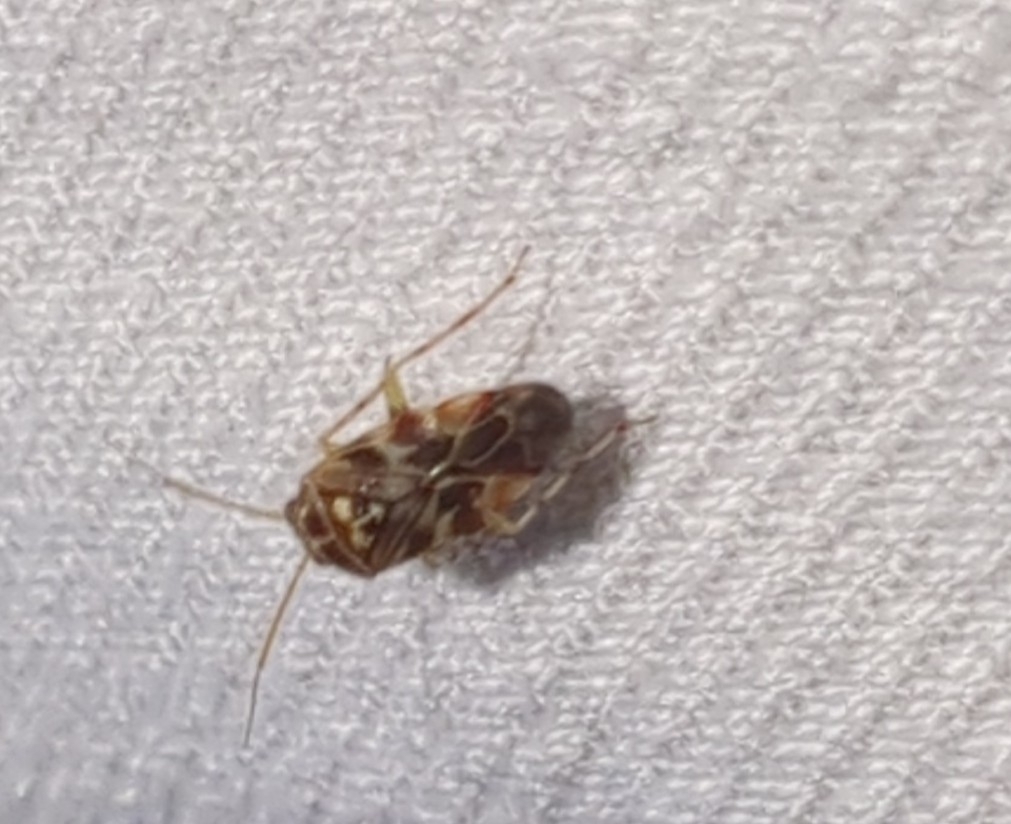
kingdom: Animalia
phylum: Arthropoda
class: Insecta
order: Hemiptera
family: Miridae
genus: Tropidosteptes
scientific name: Tropidosteptes quercicola
